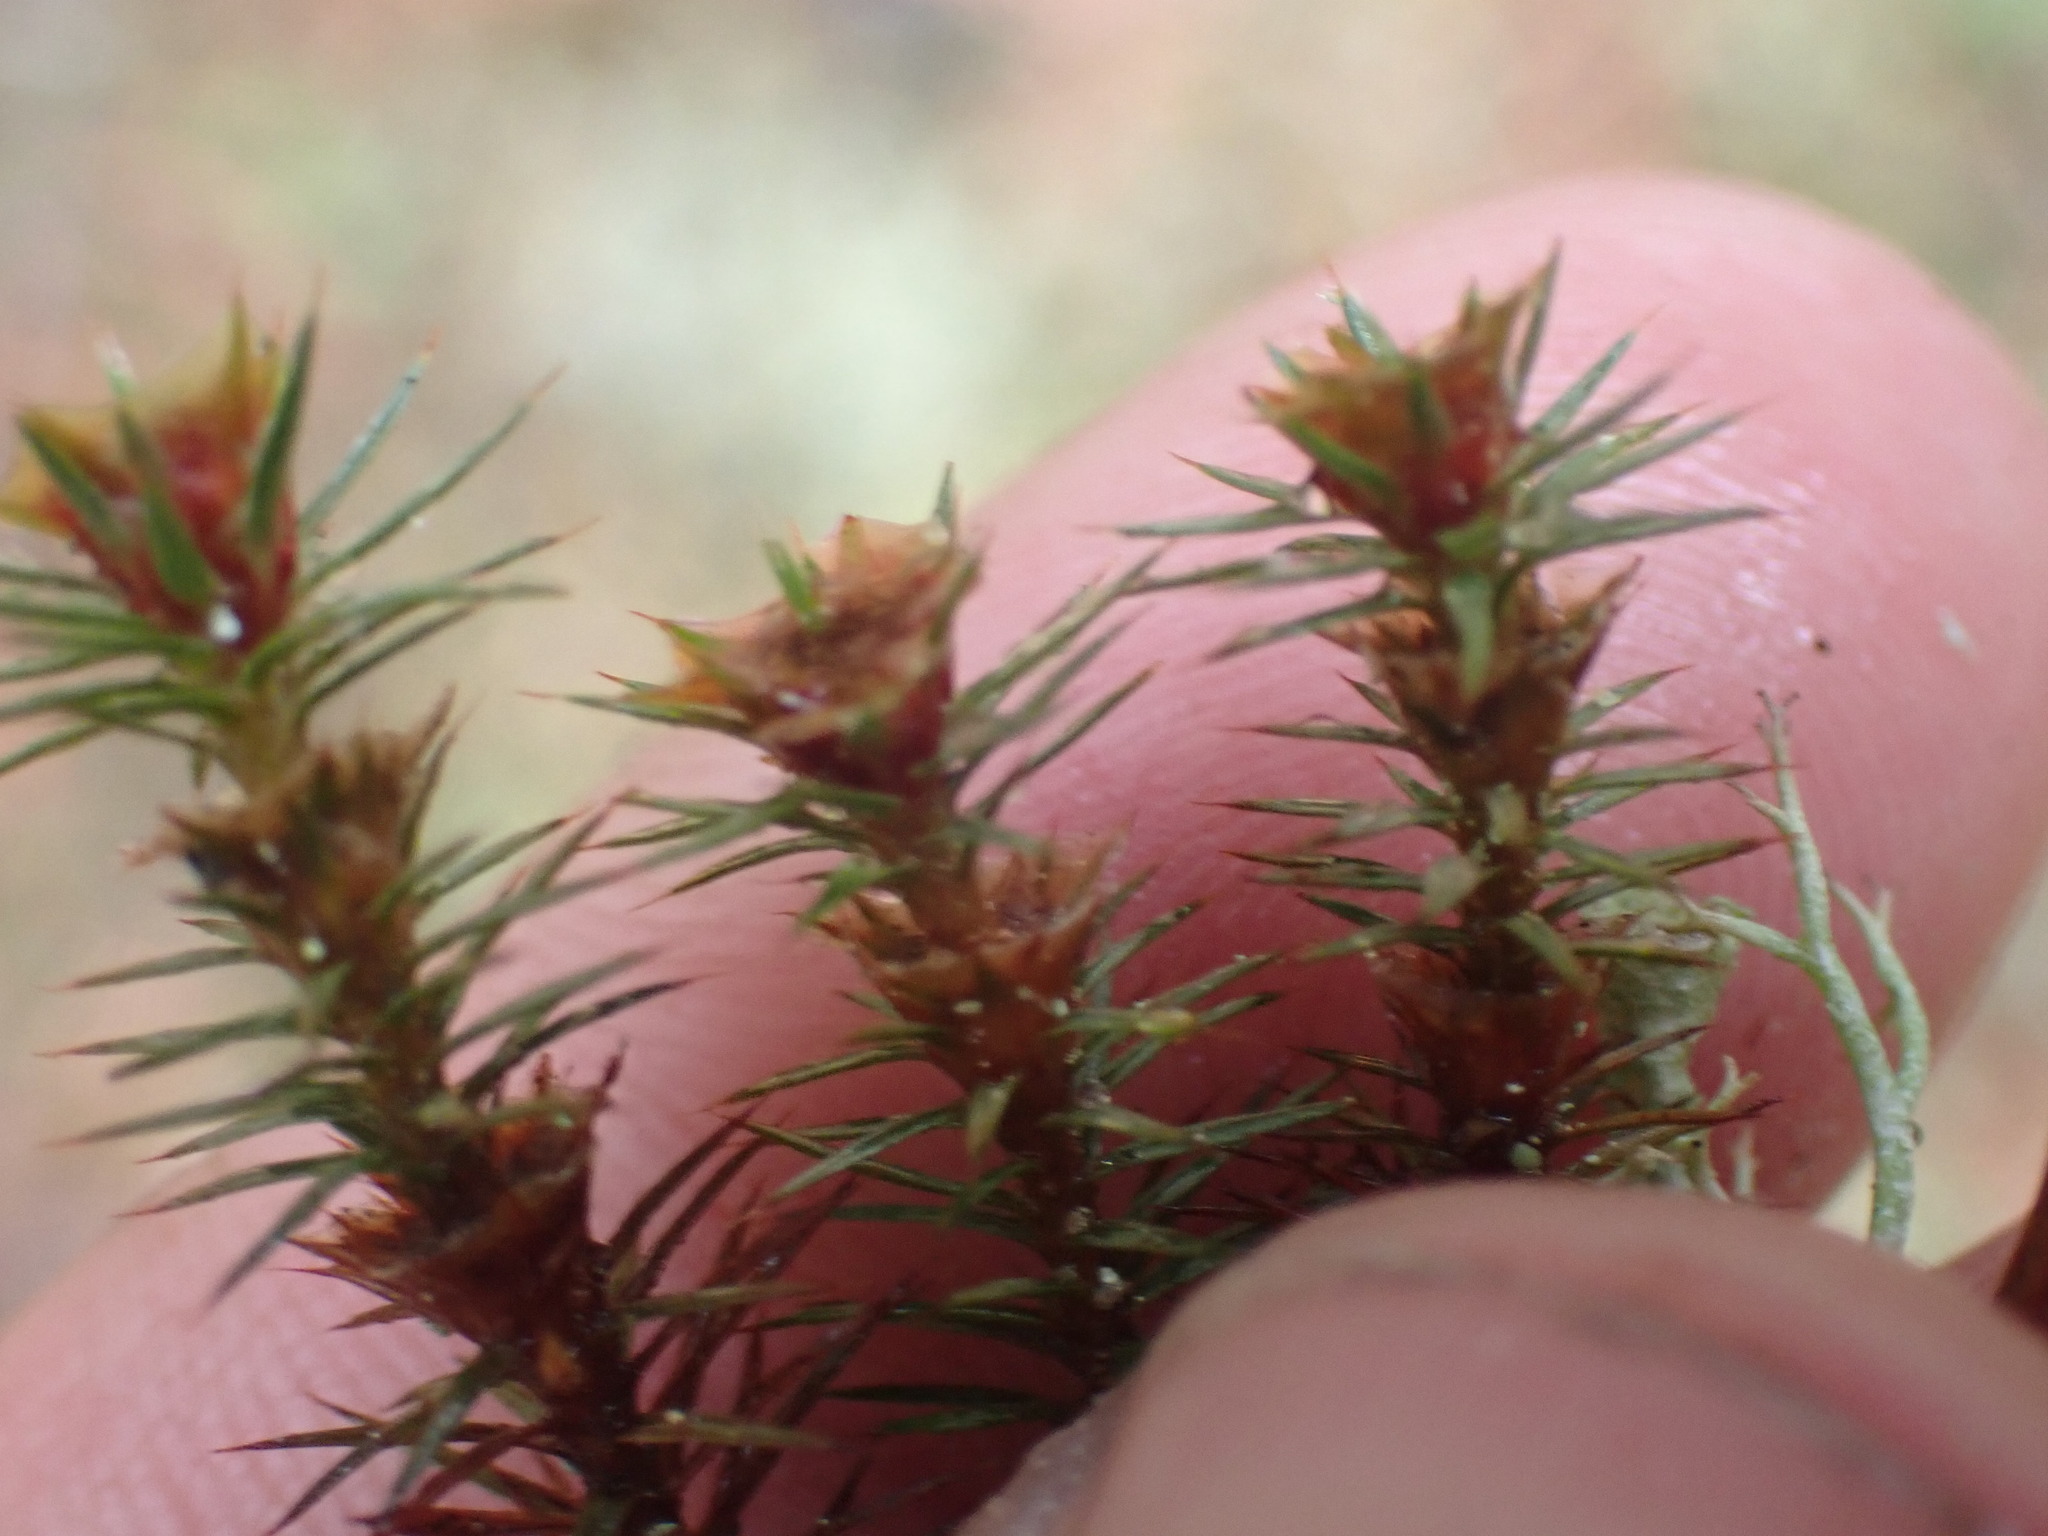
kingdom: Plantae
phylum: Bryophyta
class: Polytrichopsida
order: Polytrichales
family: Polytrichaceae
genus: Polytrichum
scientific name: Polytrichum juniperinum
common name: Juniper haircap moss
